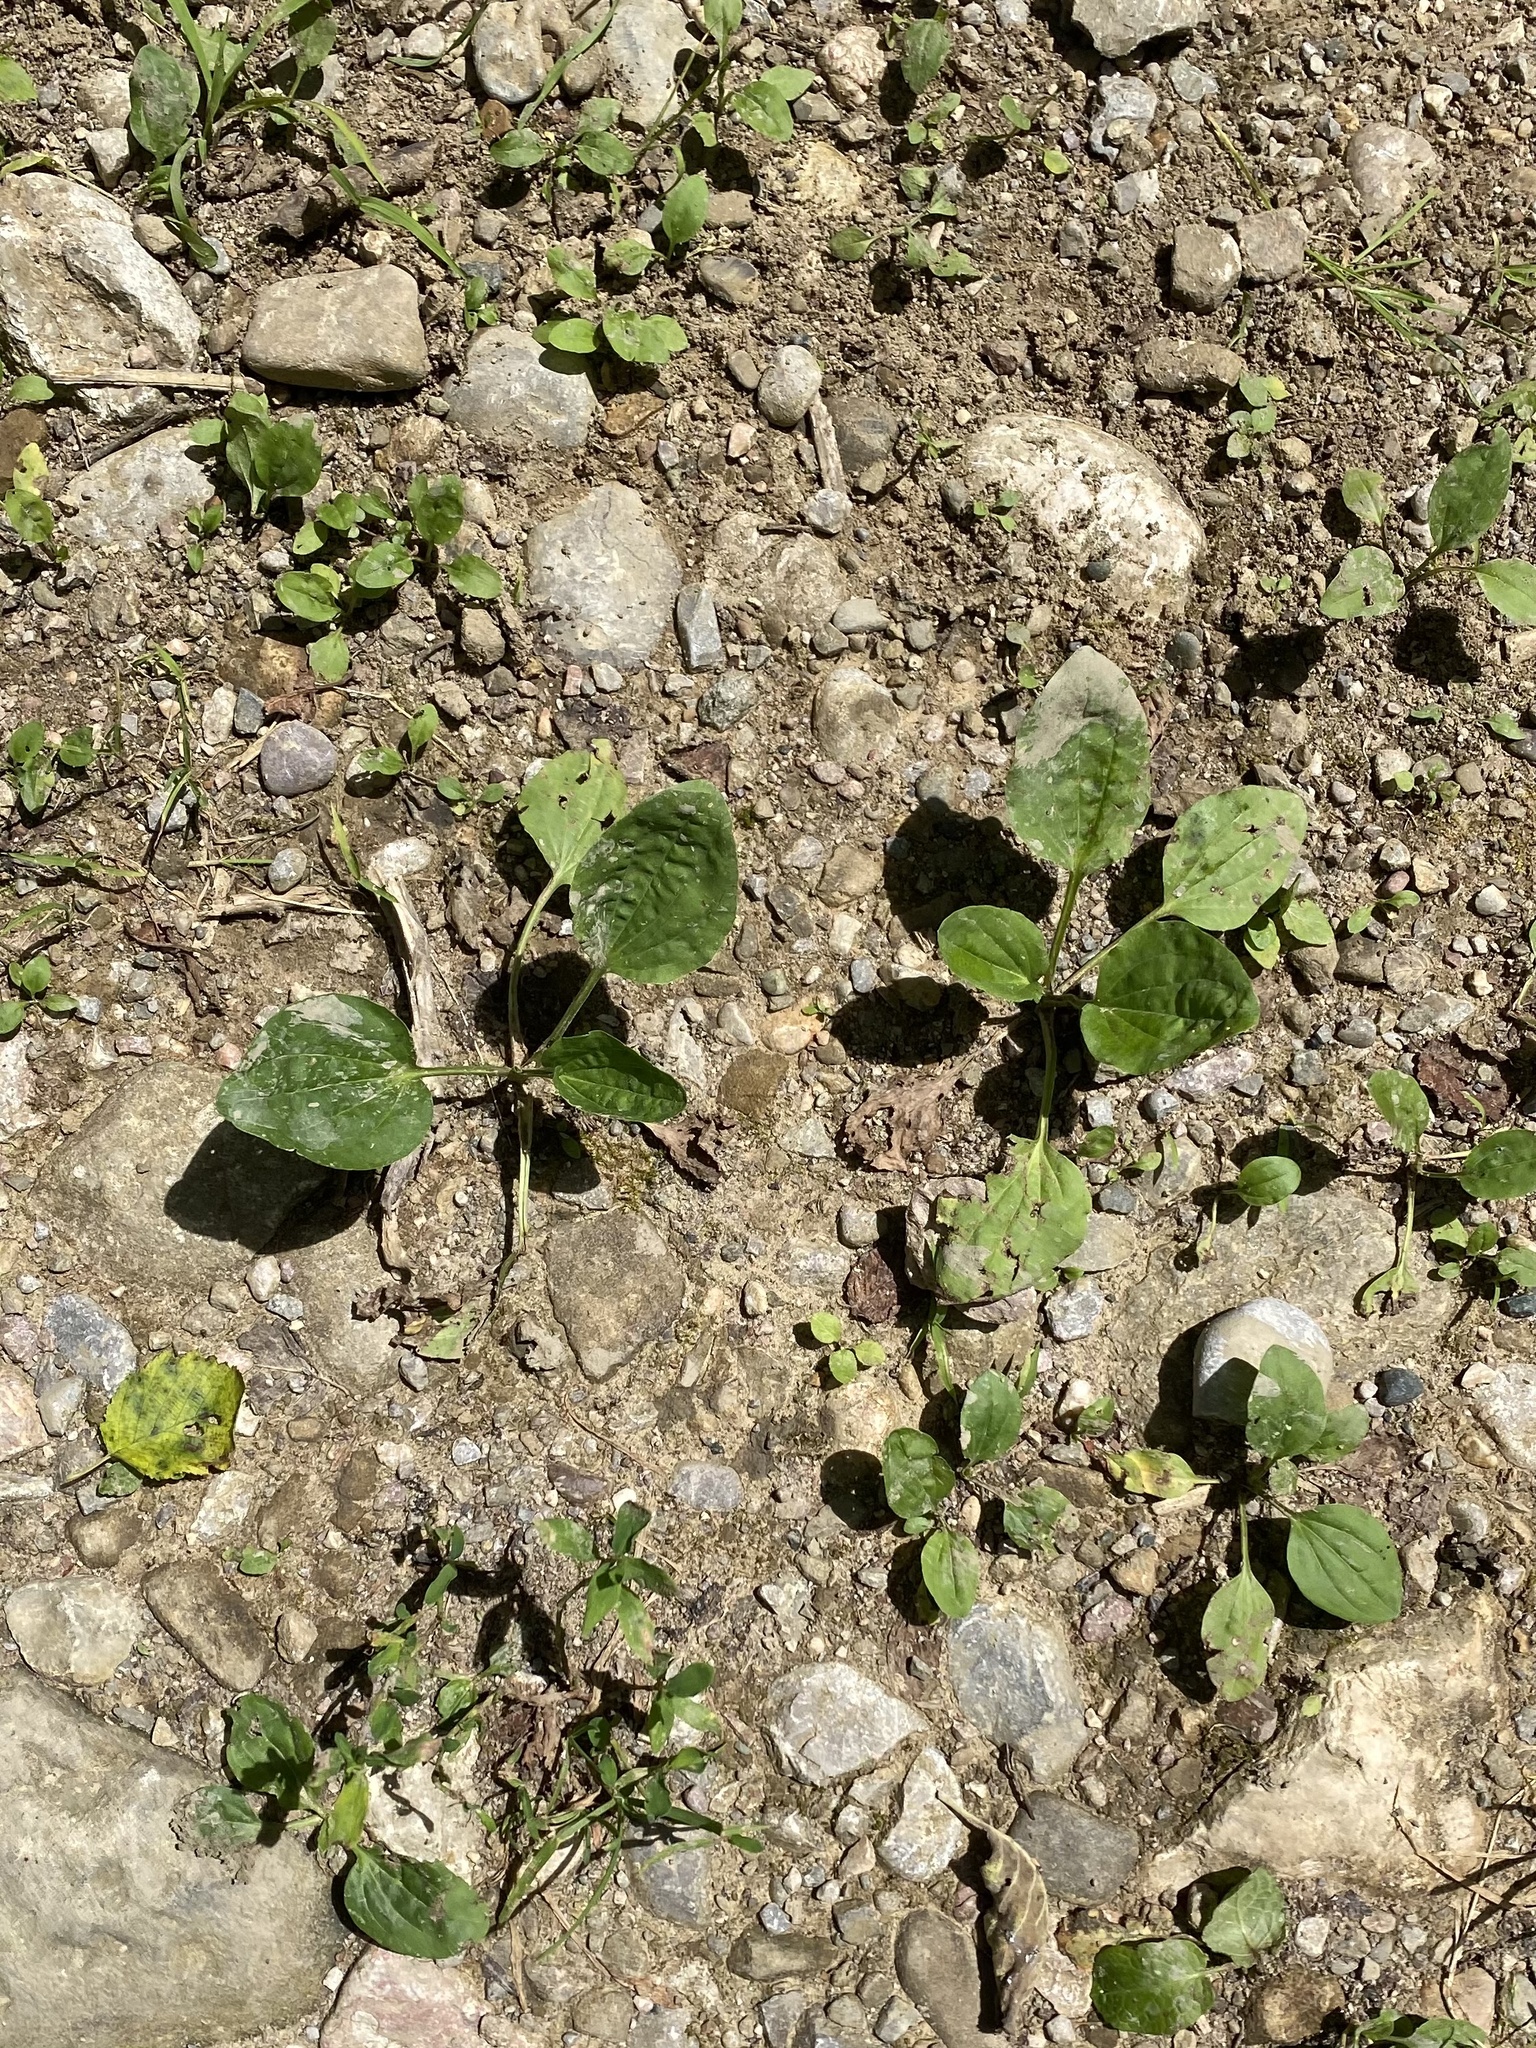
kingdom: Plantae
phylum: Tracheophyta
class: Magnoliopsida
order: Lamiales
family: Plantaginaceae
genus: Plantago
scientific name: Plantago major
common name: Common plantain
